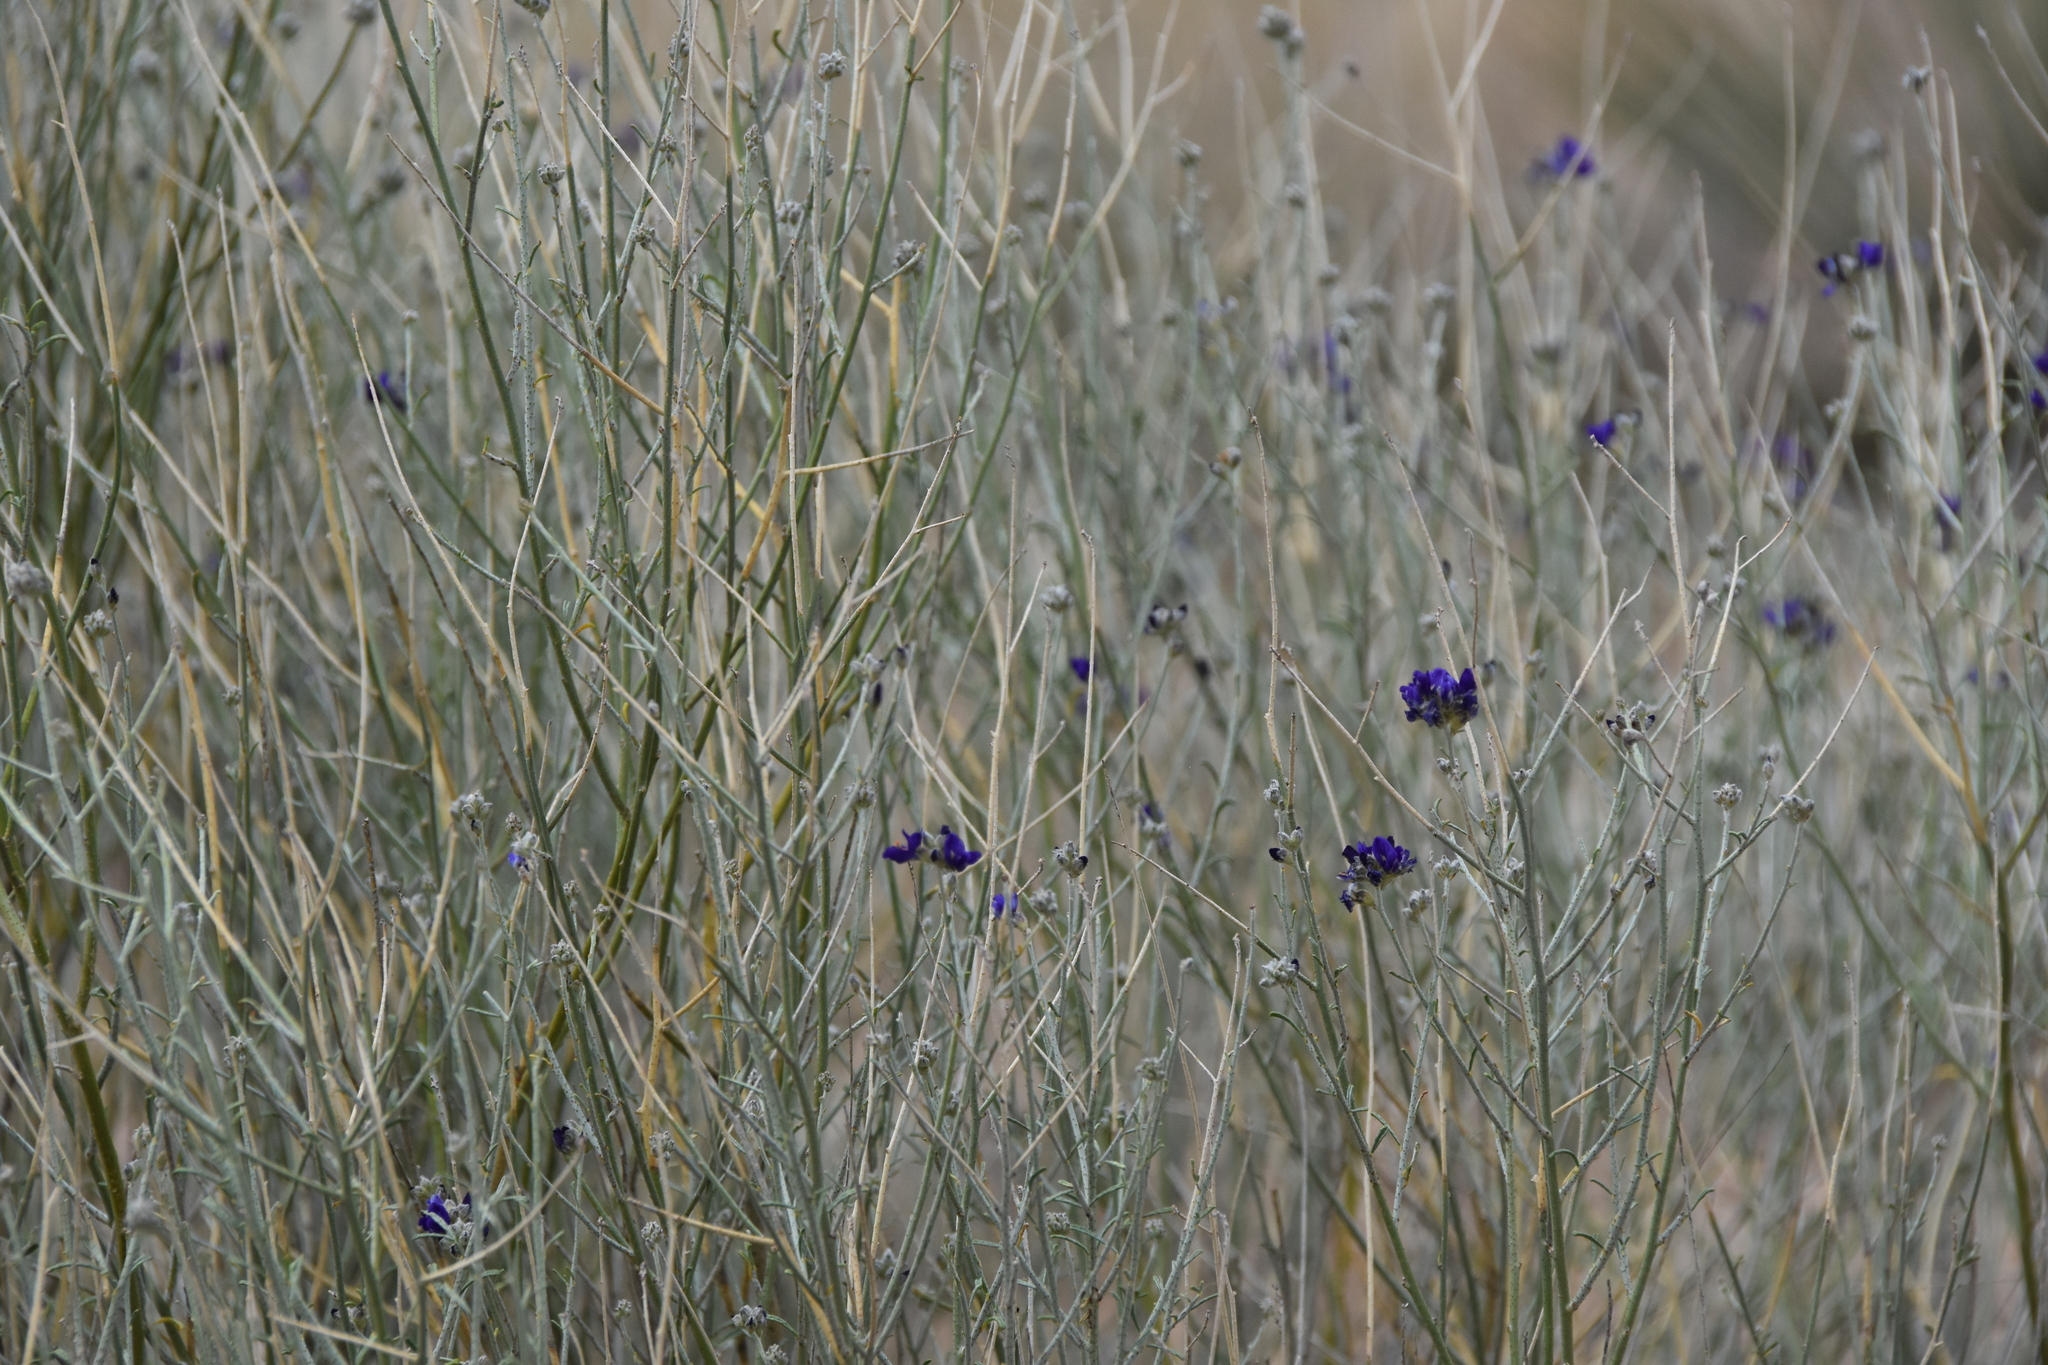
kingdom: Plantae
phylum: Tracheophyta
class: Magnoliopsida
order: Fabales
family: Fabaceae
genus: Psorothamnus
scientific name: Psorothamnus scoparius
